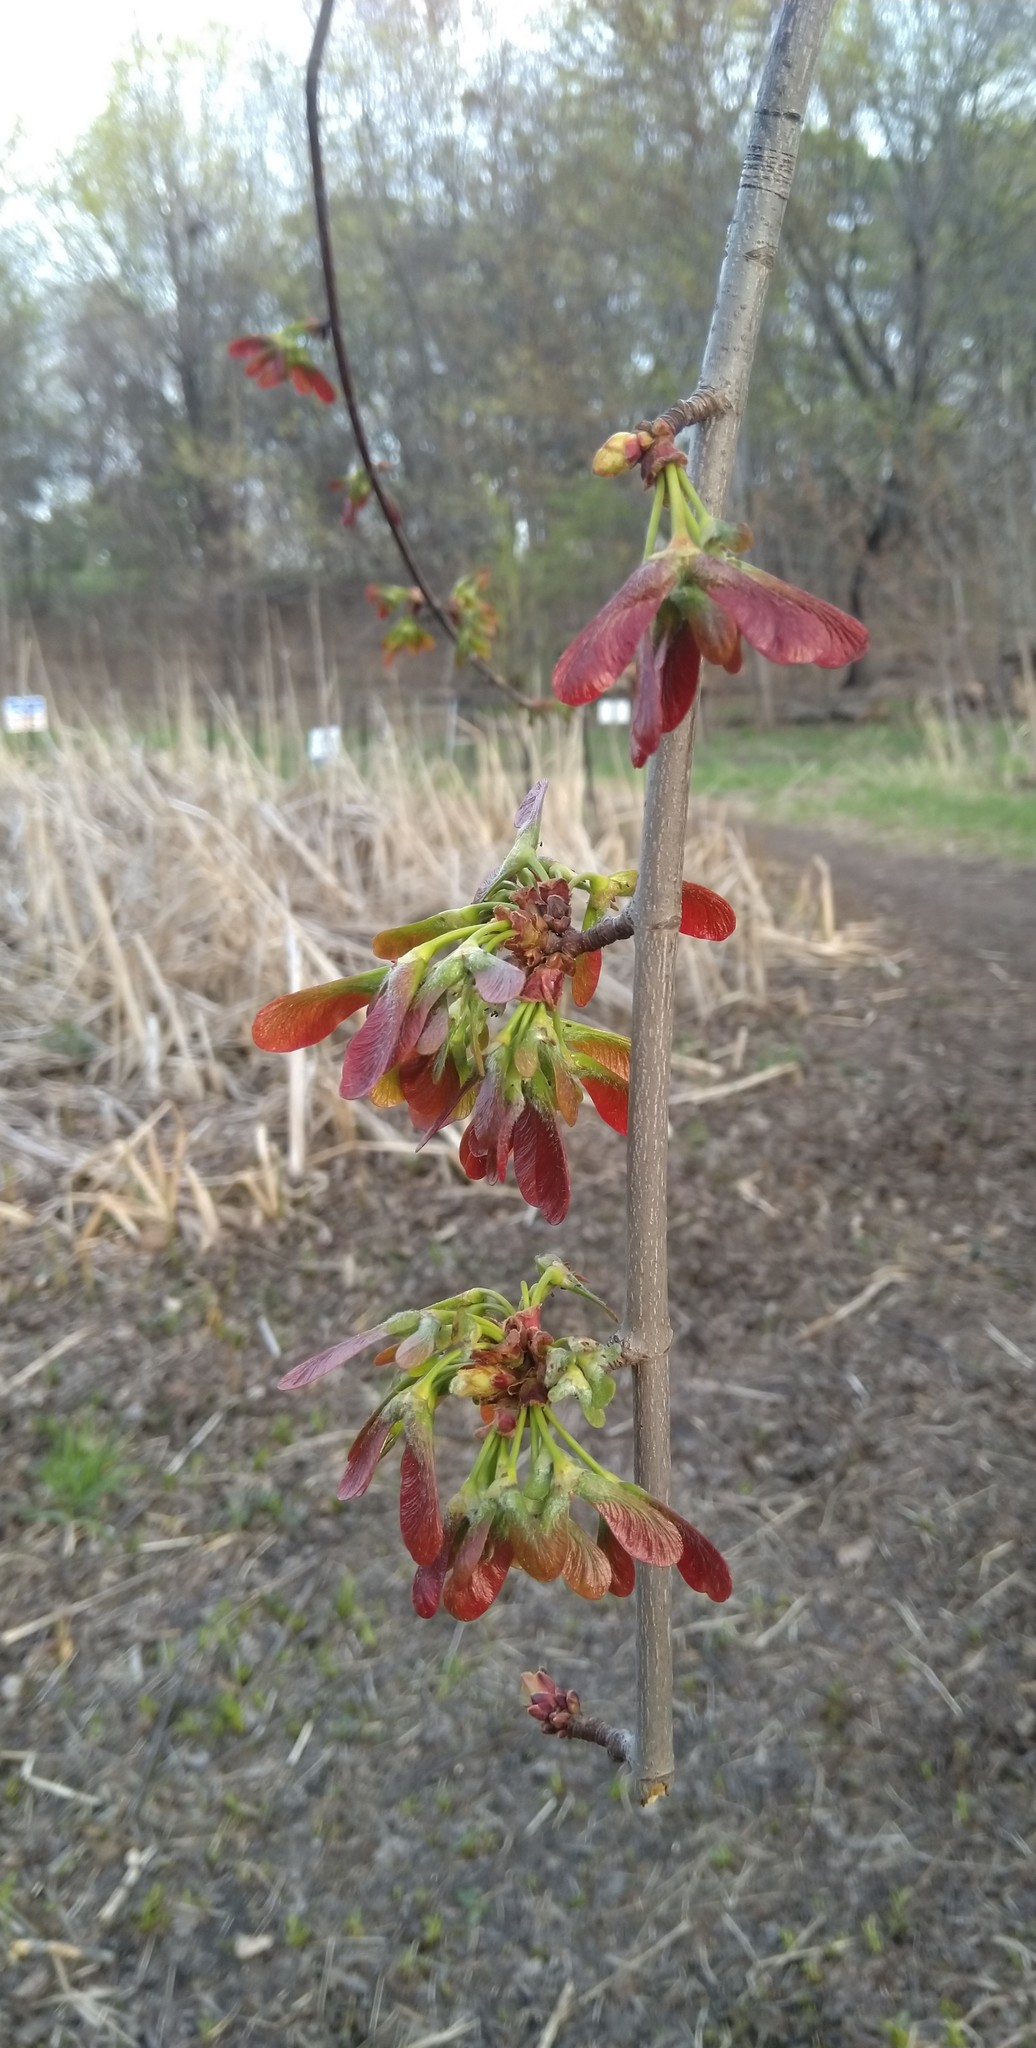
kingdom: Plantae
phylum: Tracheophyta
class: Magnoliopsida
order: Sapindales
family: Sapindaceae
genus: Acer
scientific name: Acer saccharinum
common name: Silver maple
